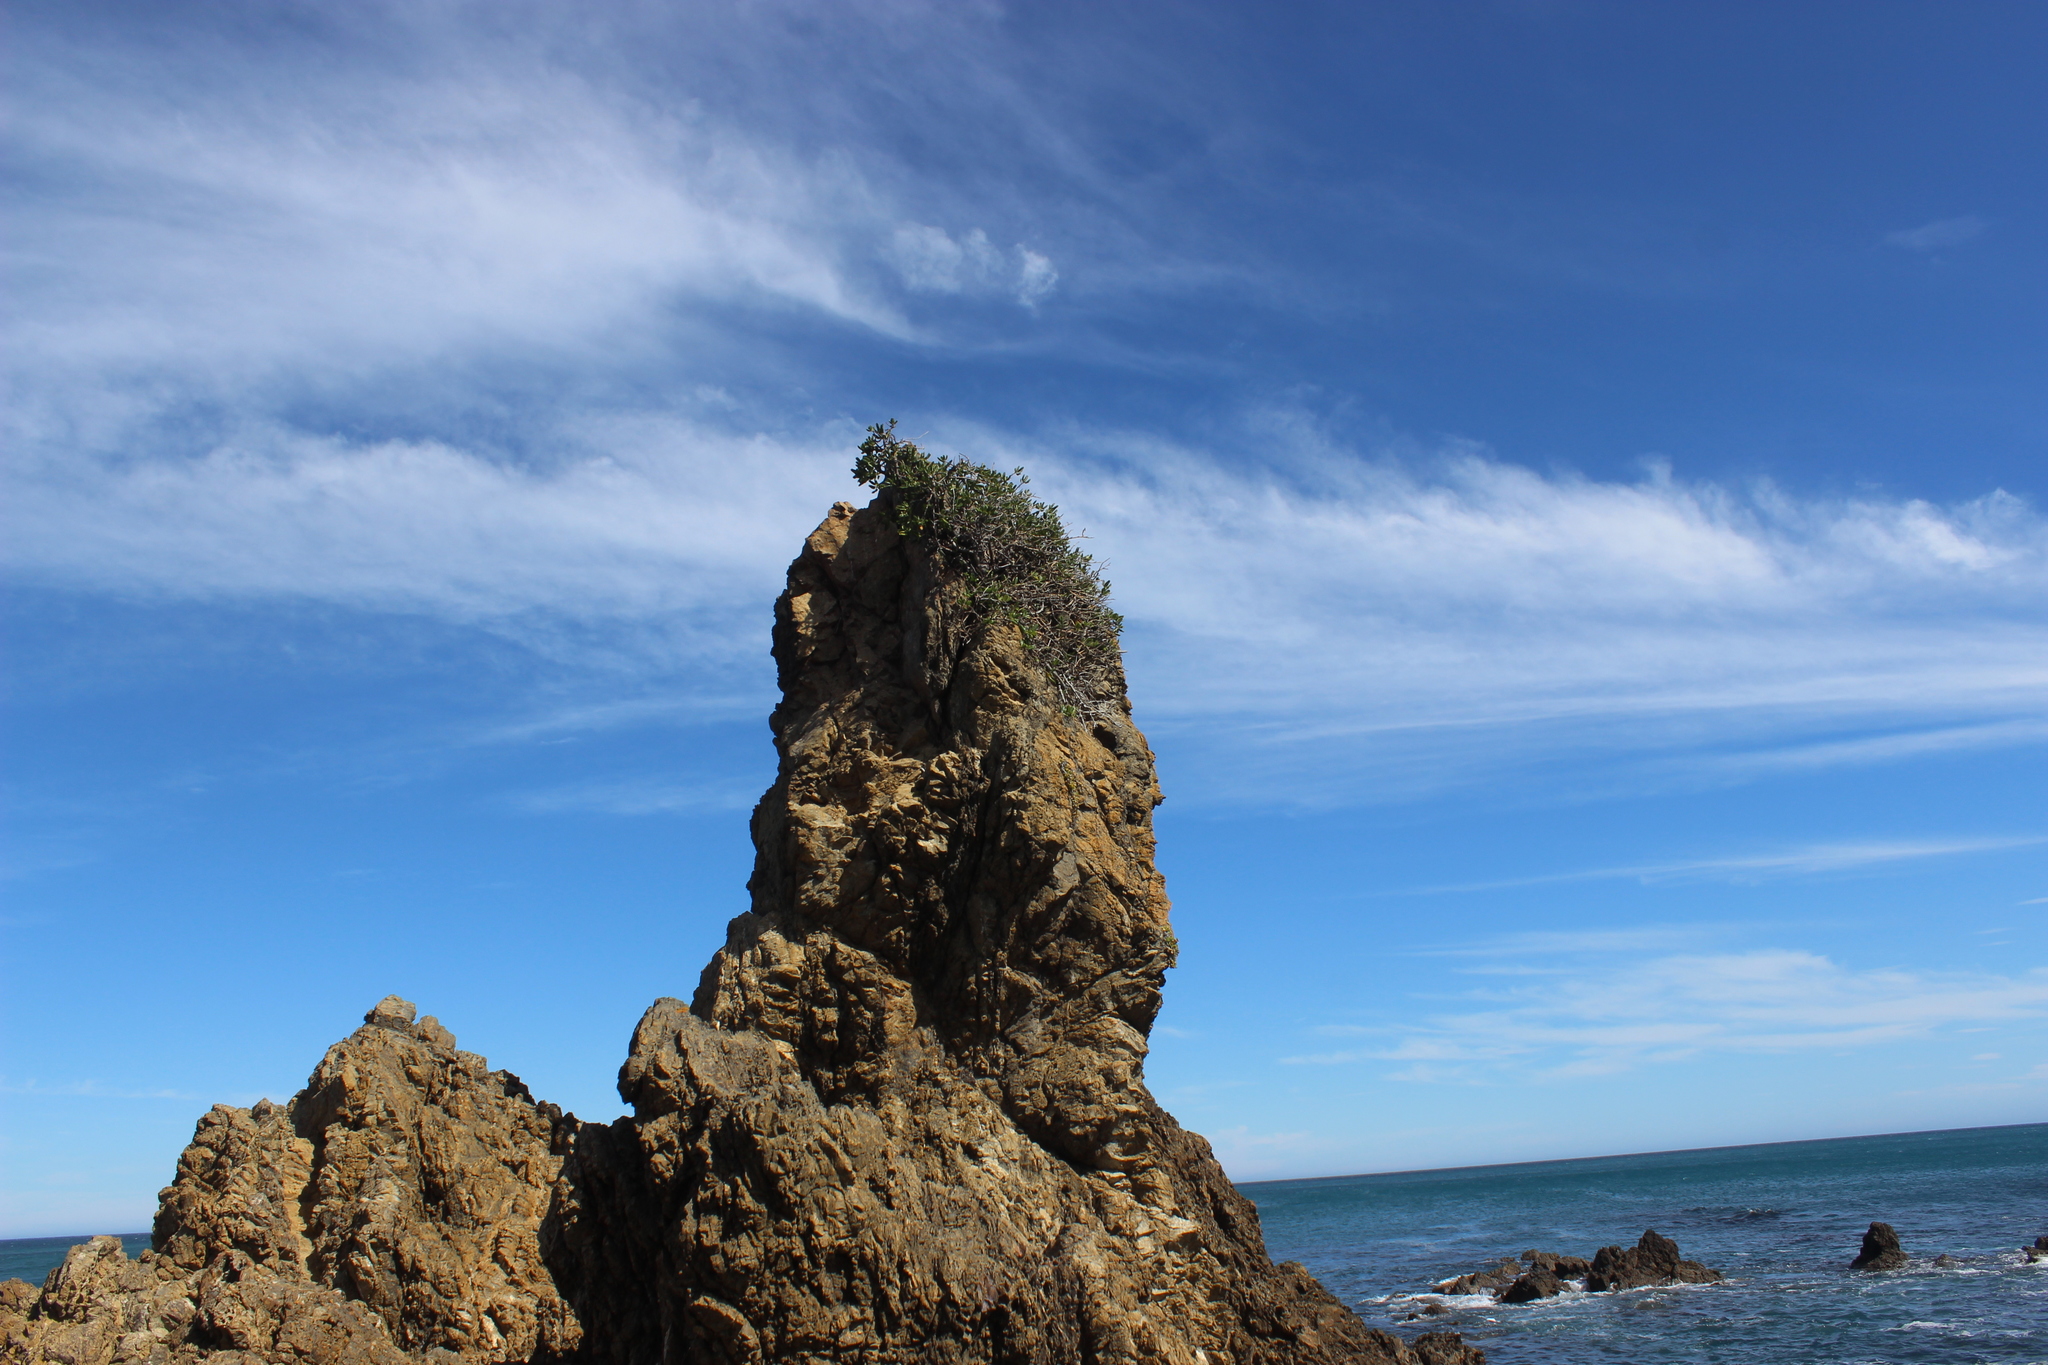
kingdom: Plantae
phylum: Tracheophyta
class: Magnoliopsida
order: Gentianales
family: Rubiaceae
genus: Coprosma
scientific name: Coprosma repens
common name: Tree bedstraw
